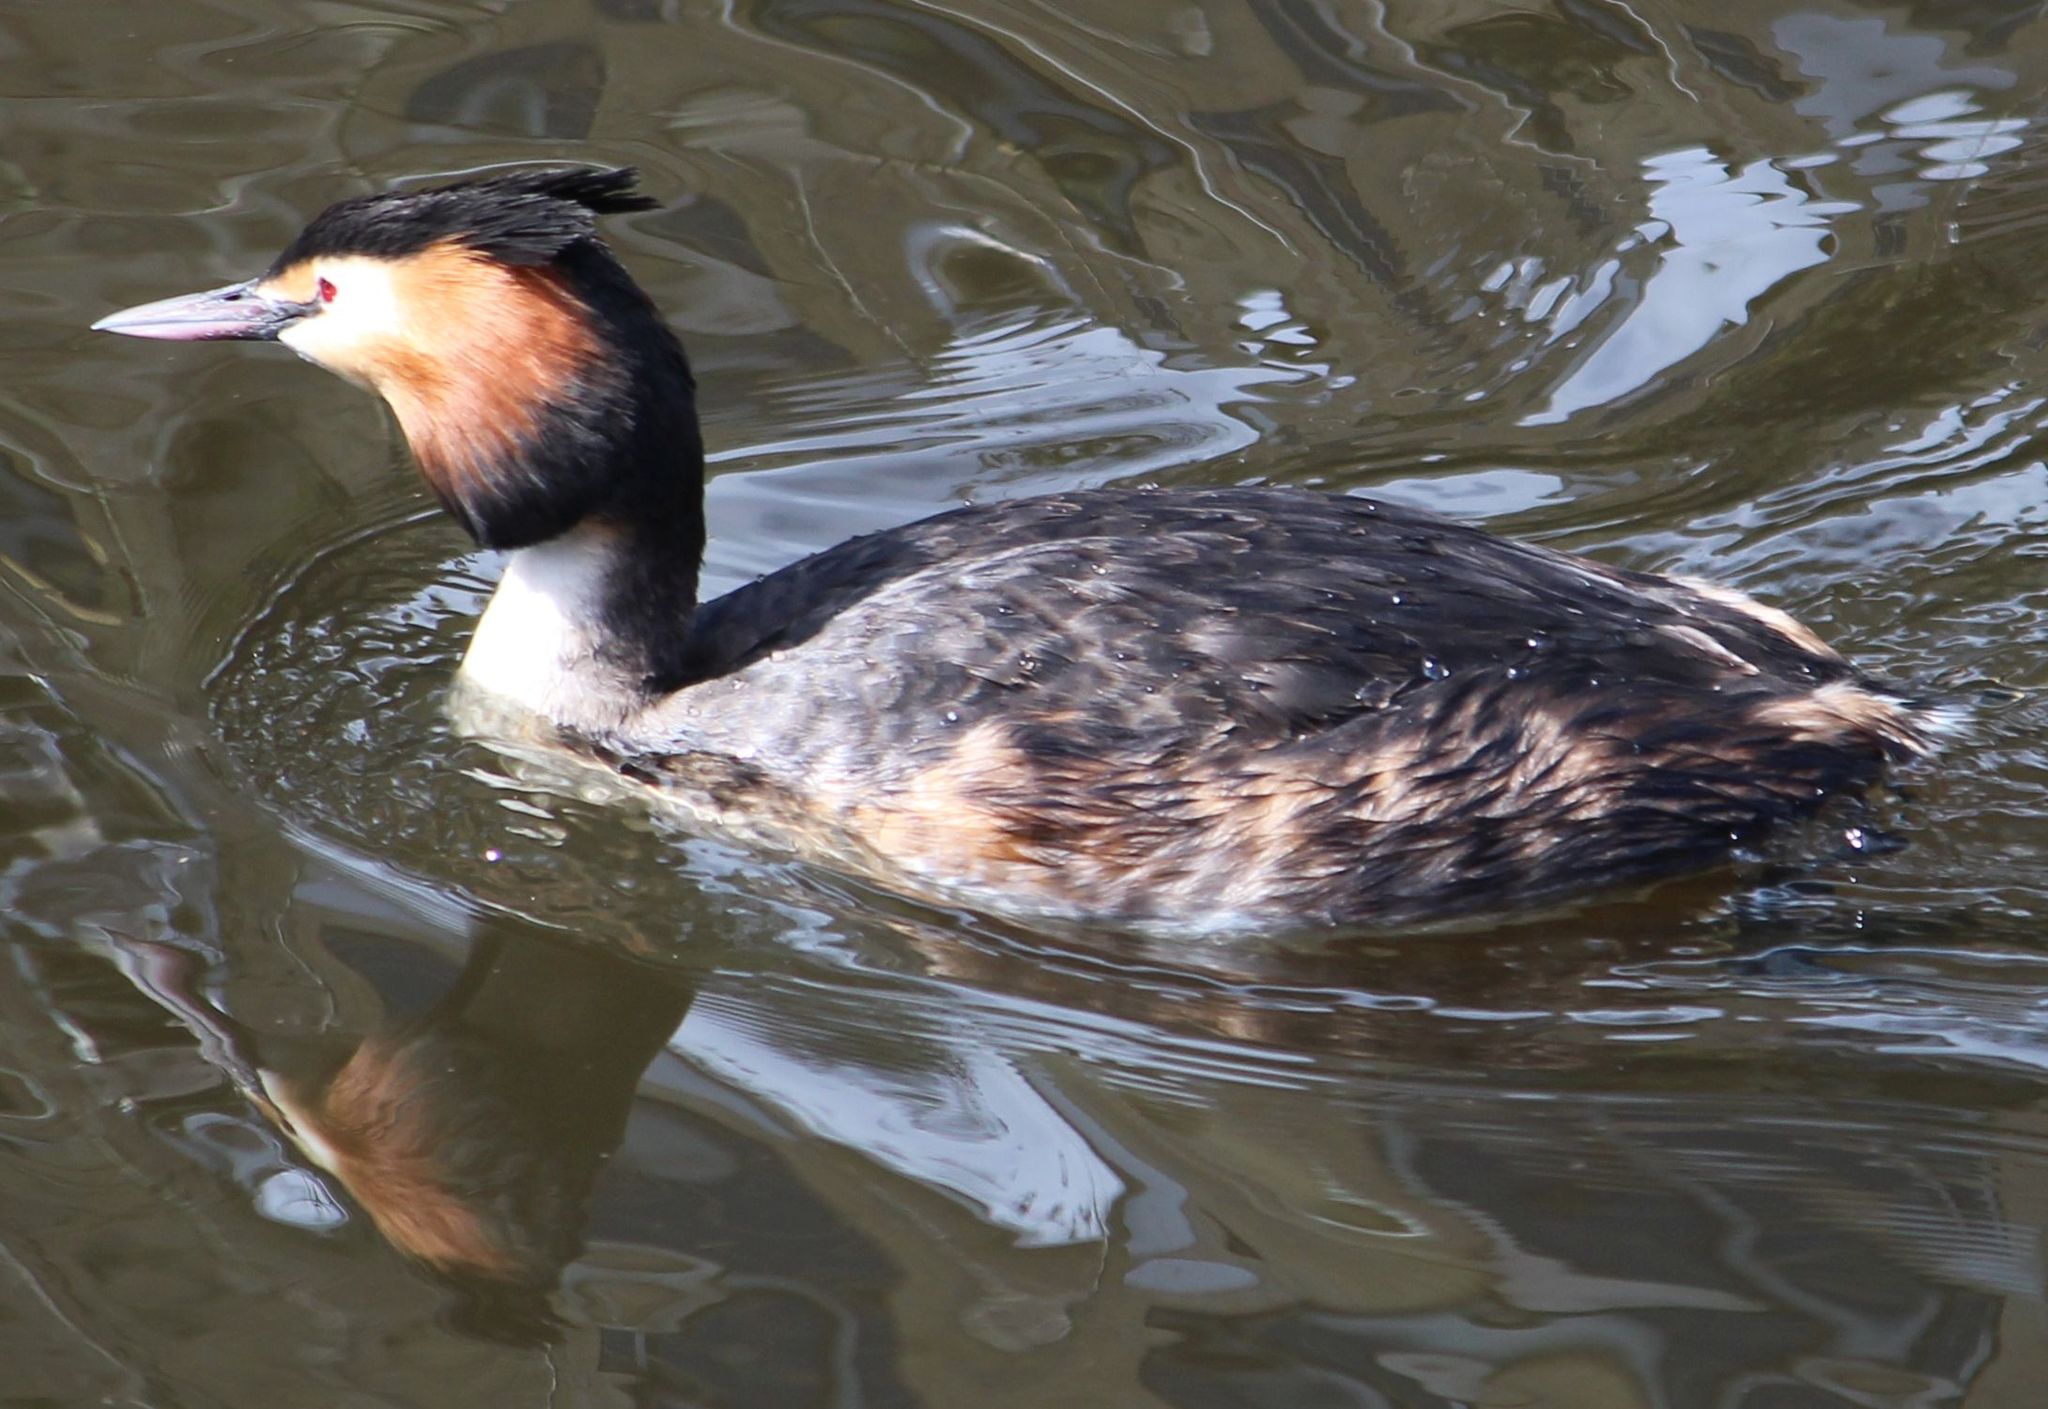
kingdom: Animalia
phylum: Chordata
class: Aves
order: Podicipediformes
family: Podicipedidae
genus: Podiceps
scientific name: Podiceps cristatus
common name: Great crested grebe
